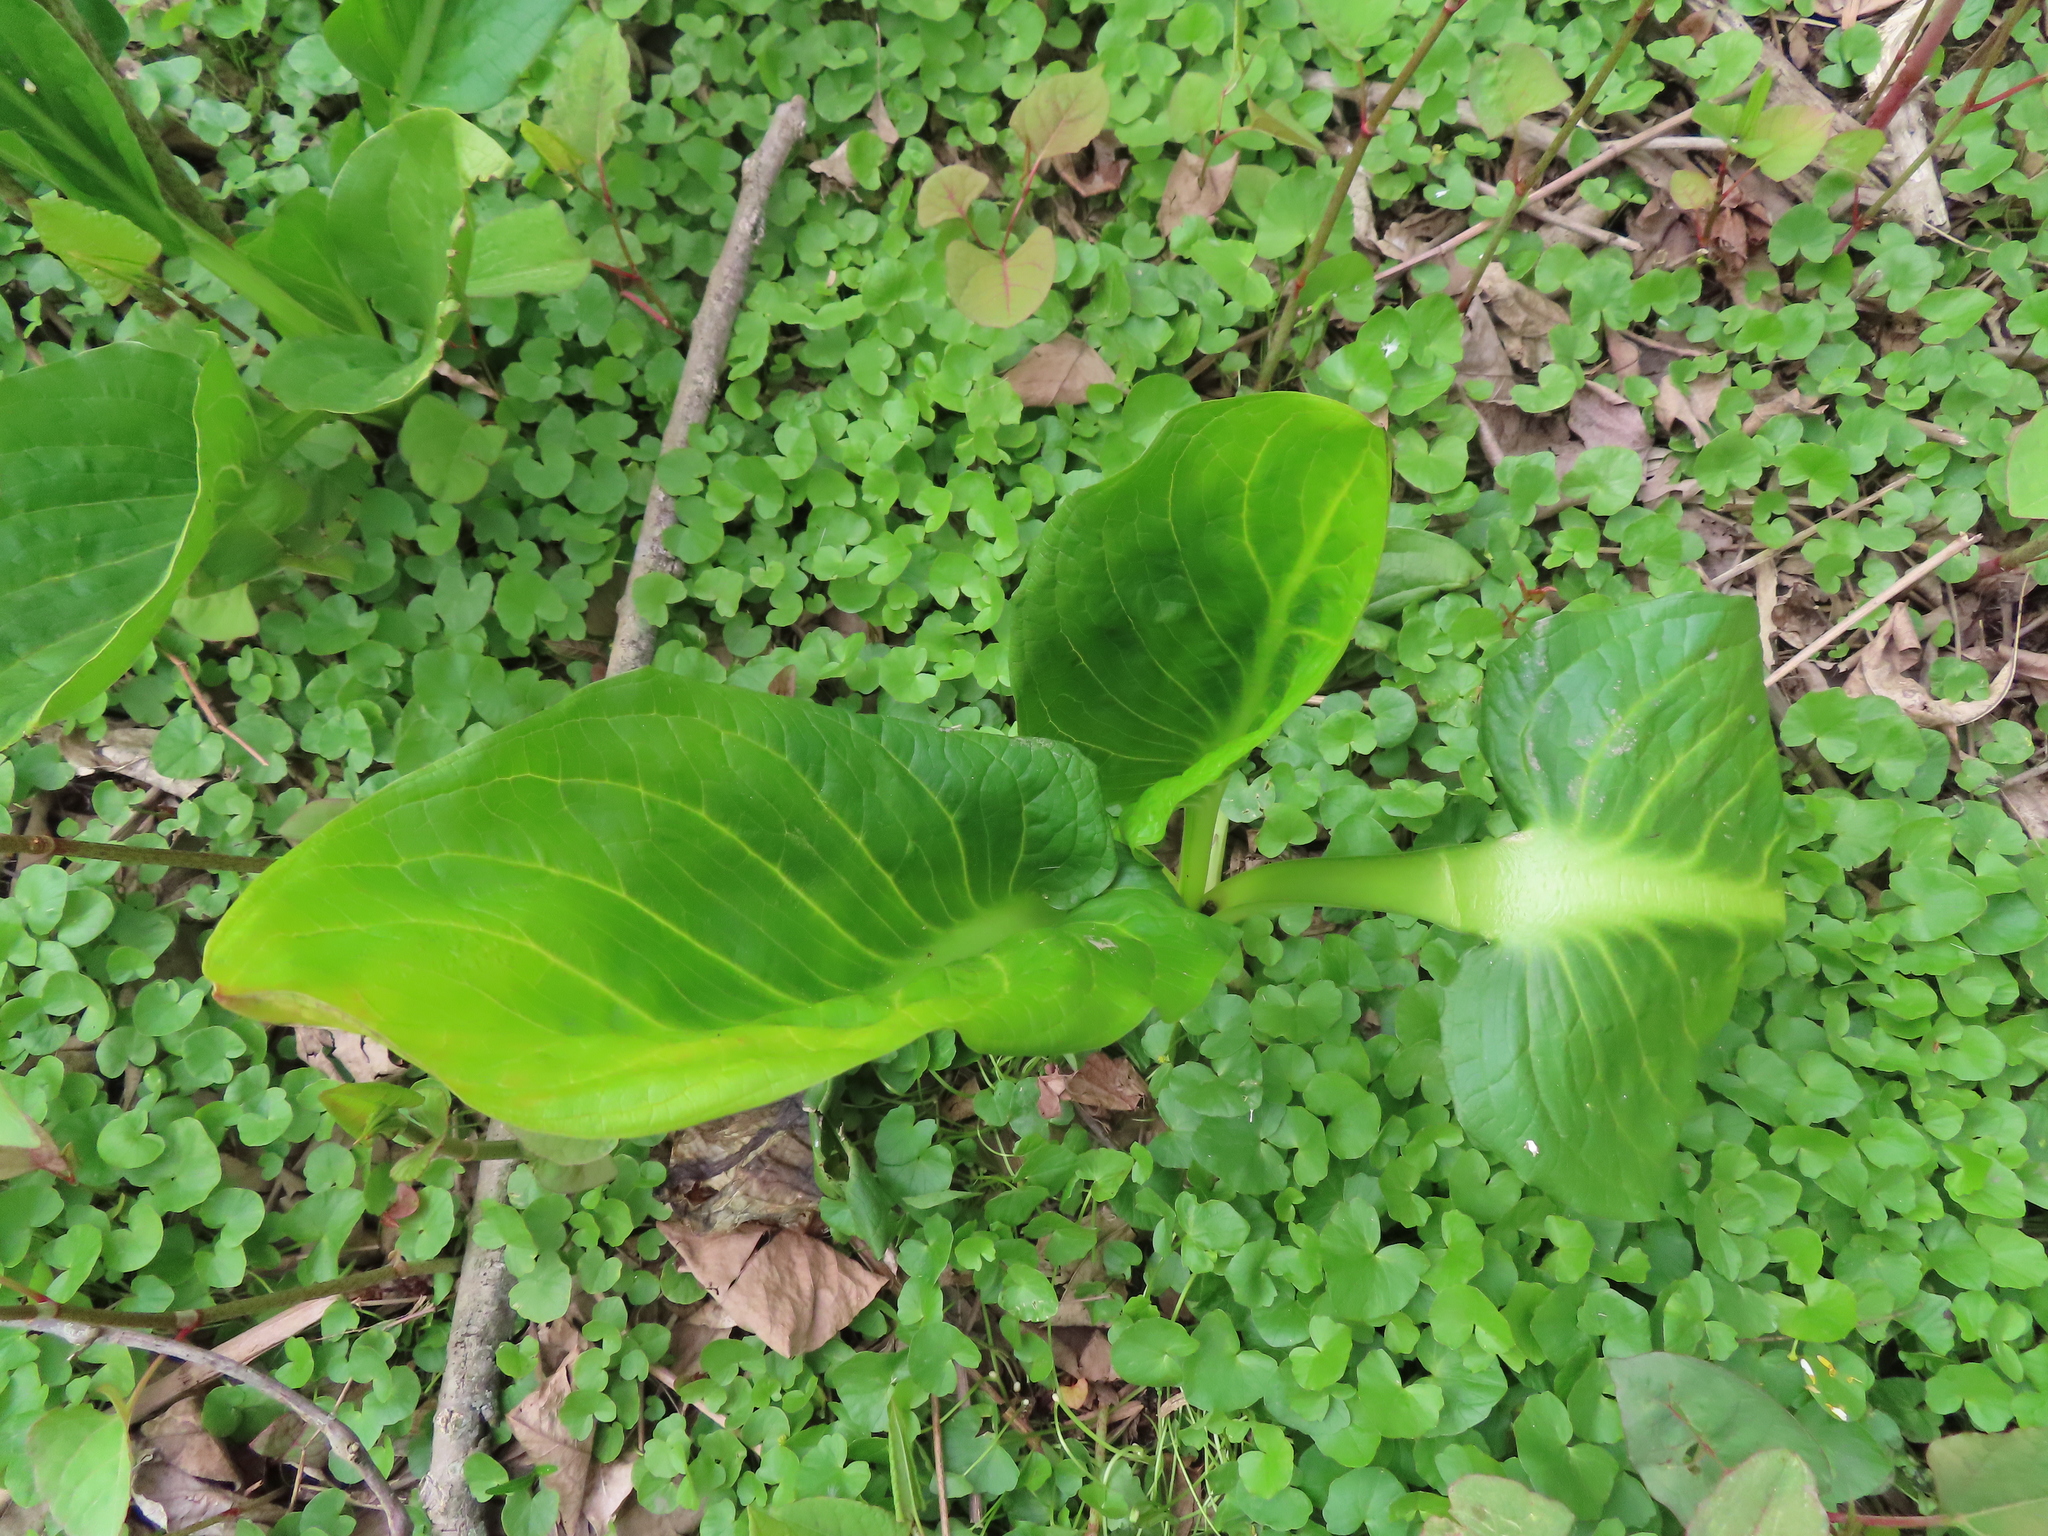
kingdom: Plantae
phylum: Tracheophyta
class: Liliopsida
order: Alismatales
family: Araceae
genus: Symplocarpus
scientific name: Symplocarpus foetidus
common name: Eastern skunk cabbage
